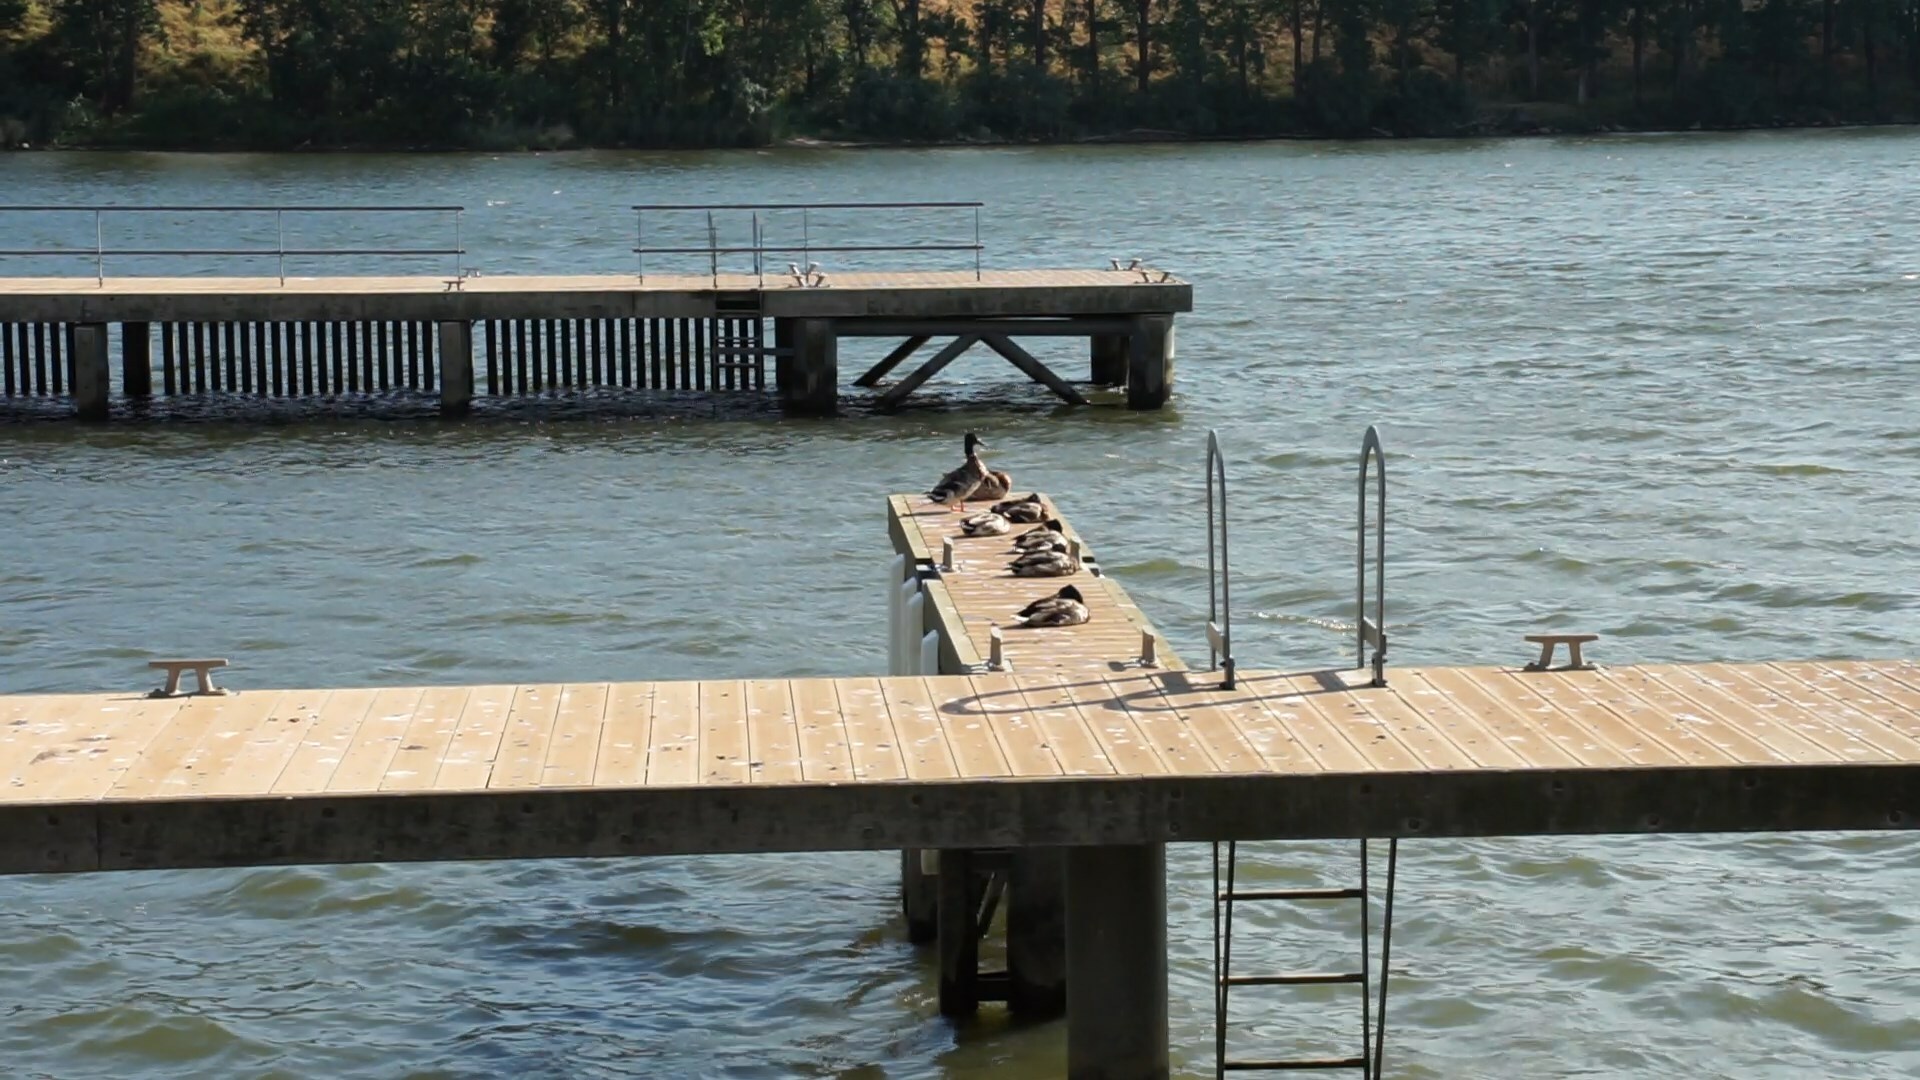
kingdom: Animalia
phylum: Chordata
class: Aves
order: Anseriformes
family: Anatidae
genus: Anas
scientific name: Anas platyrhynchos
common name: Mallard
